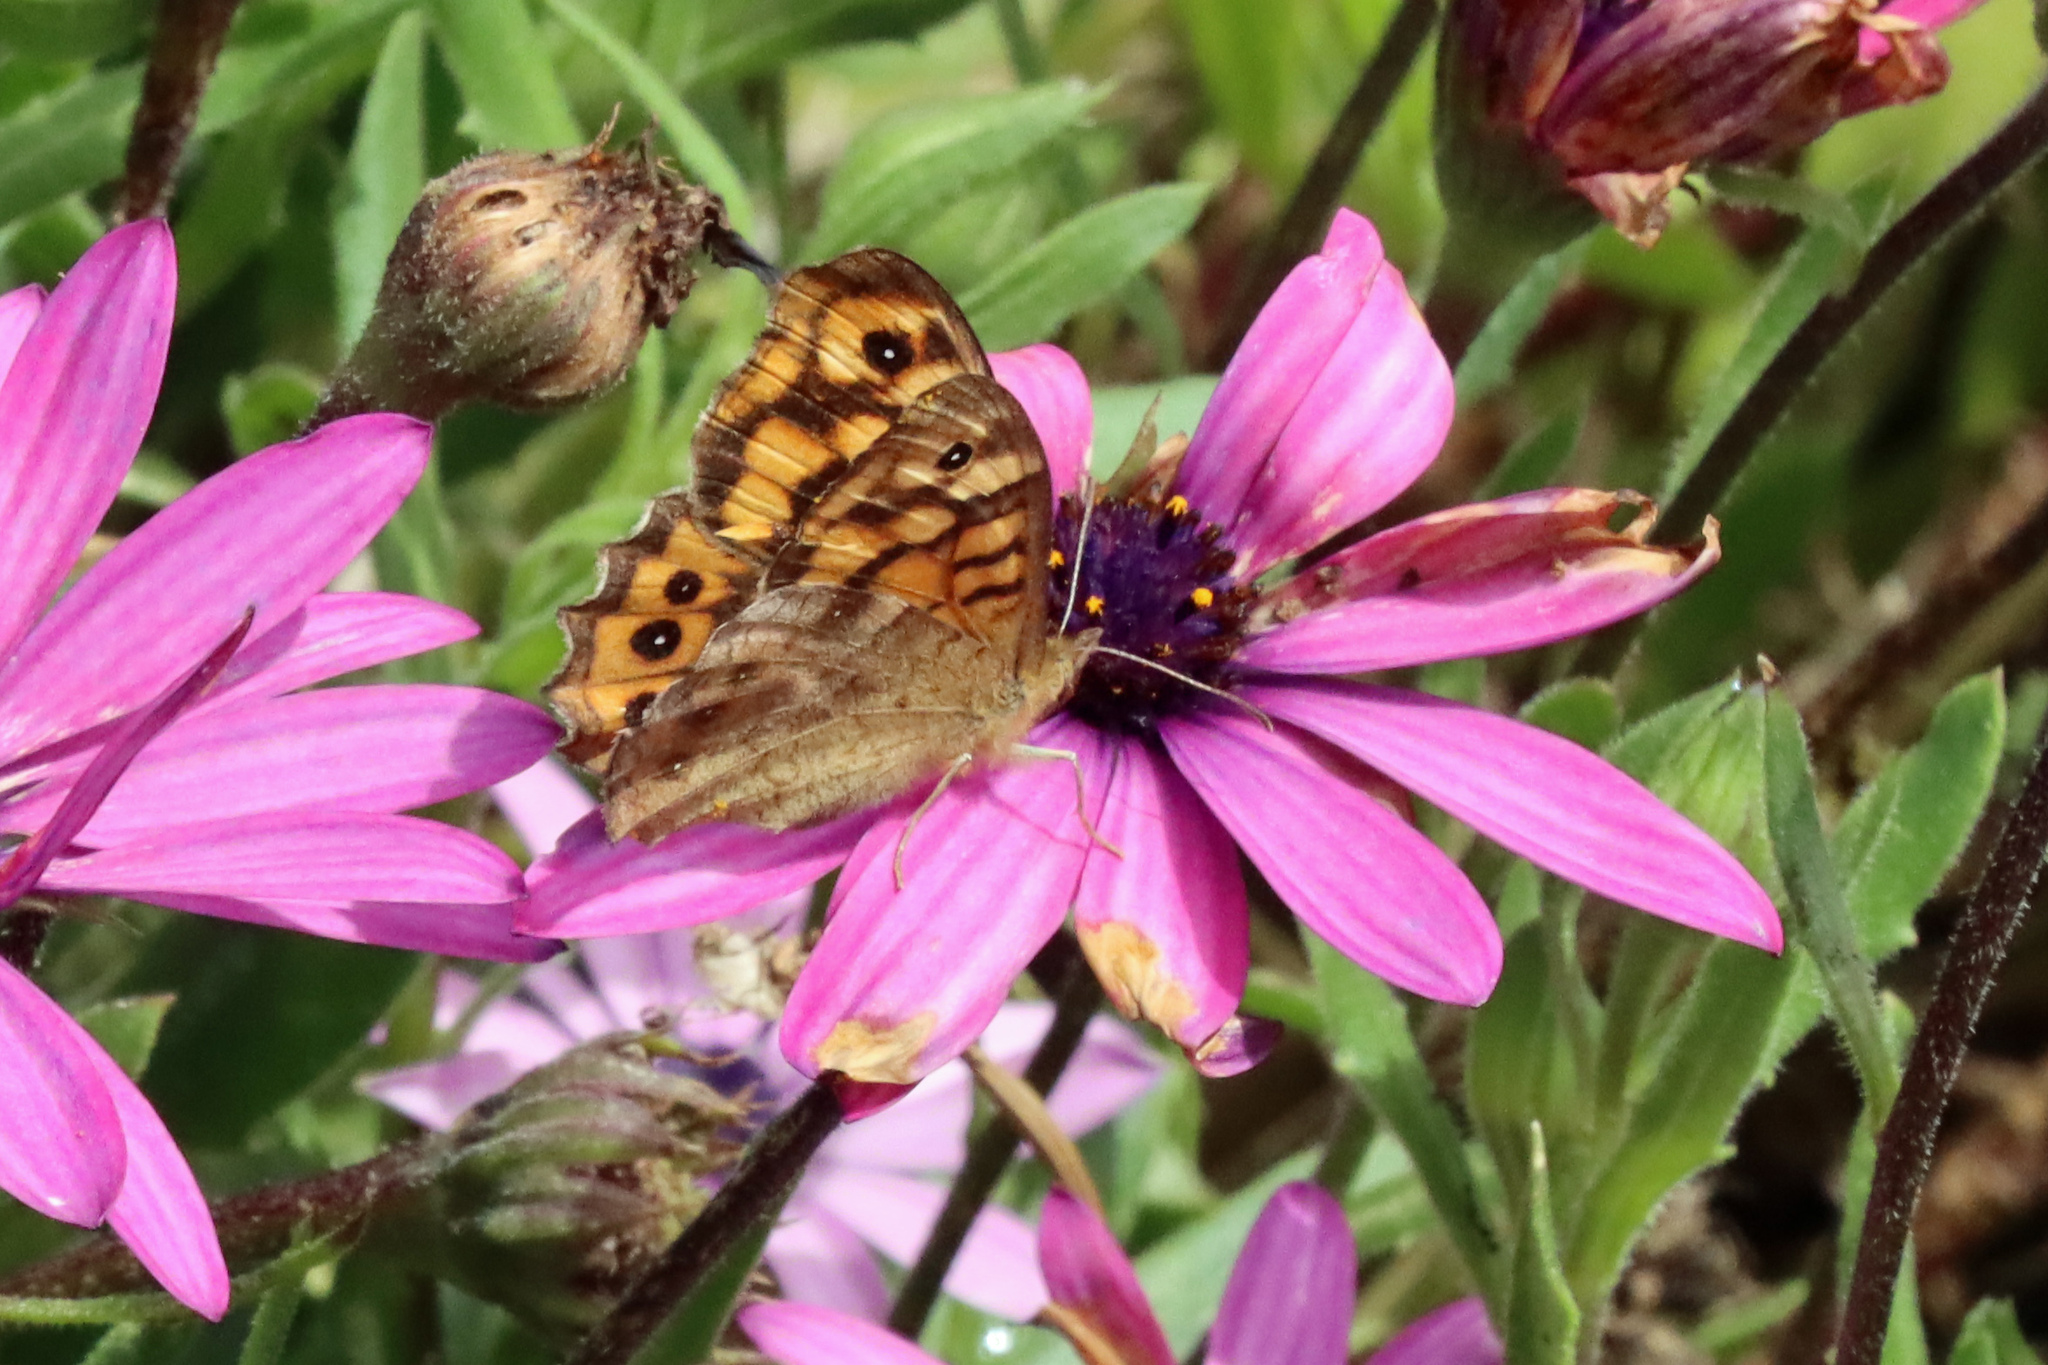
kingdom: Animalia
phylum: Arthropoda
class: Insecta
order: Lepidoptera
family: Nymphalidae
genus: Pararge
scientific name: Pararge aegeria
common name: Speckled wood
